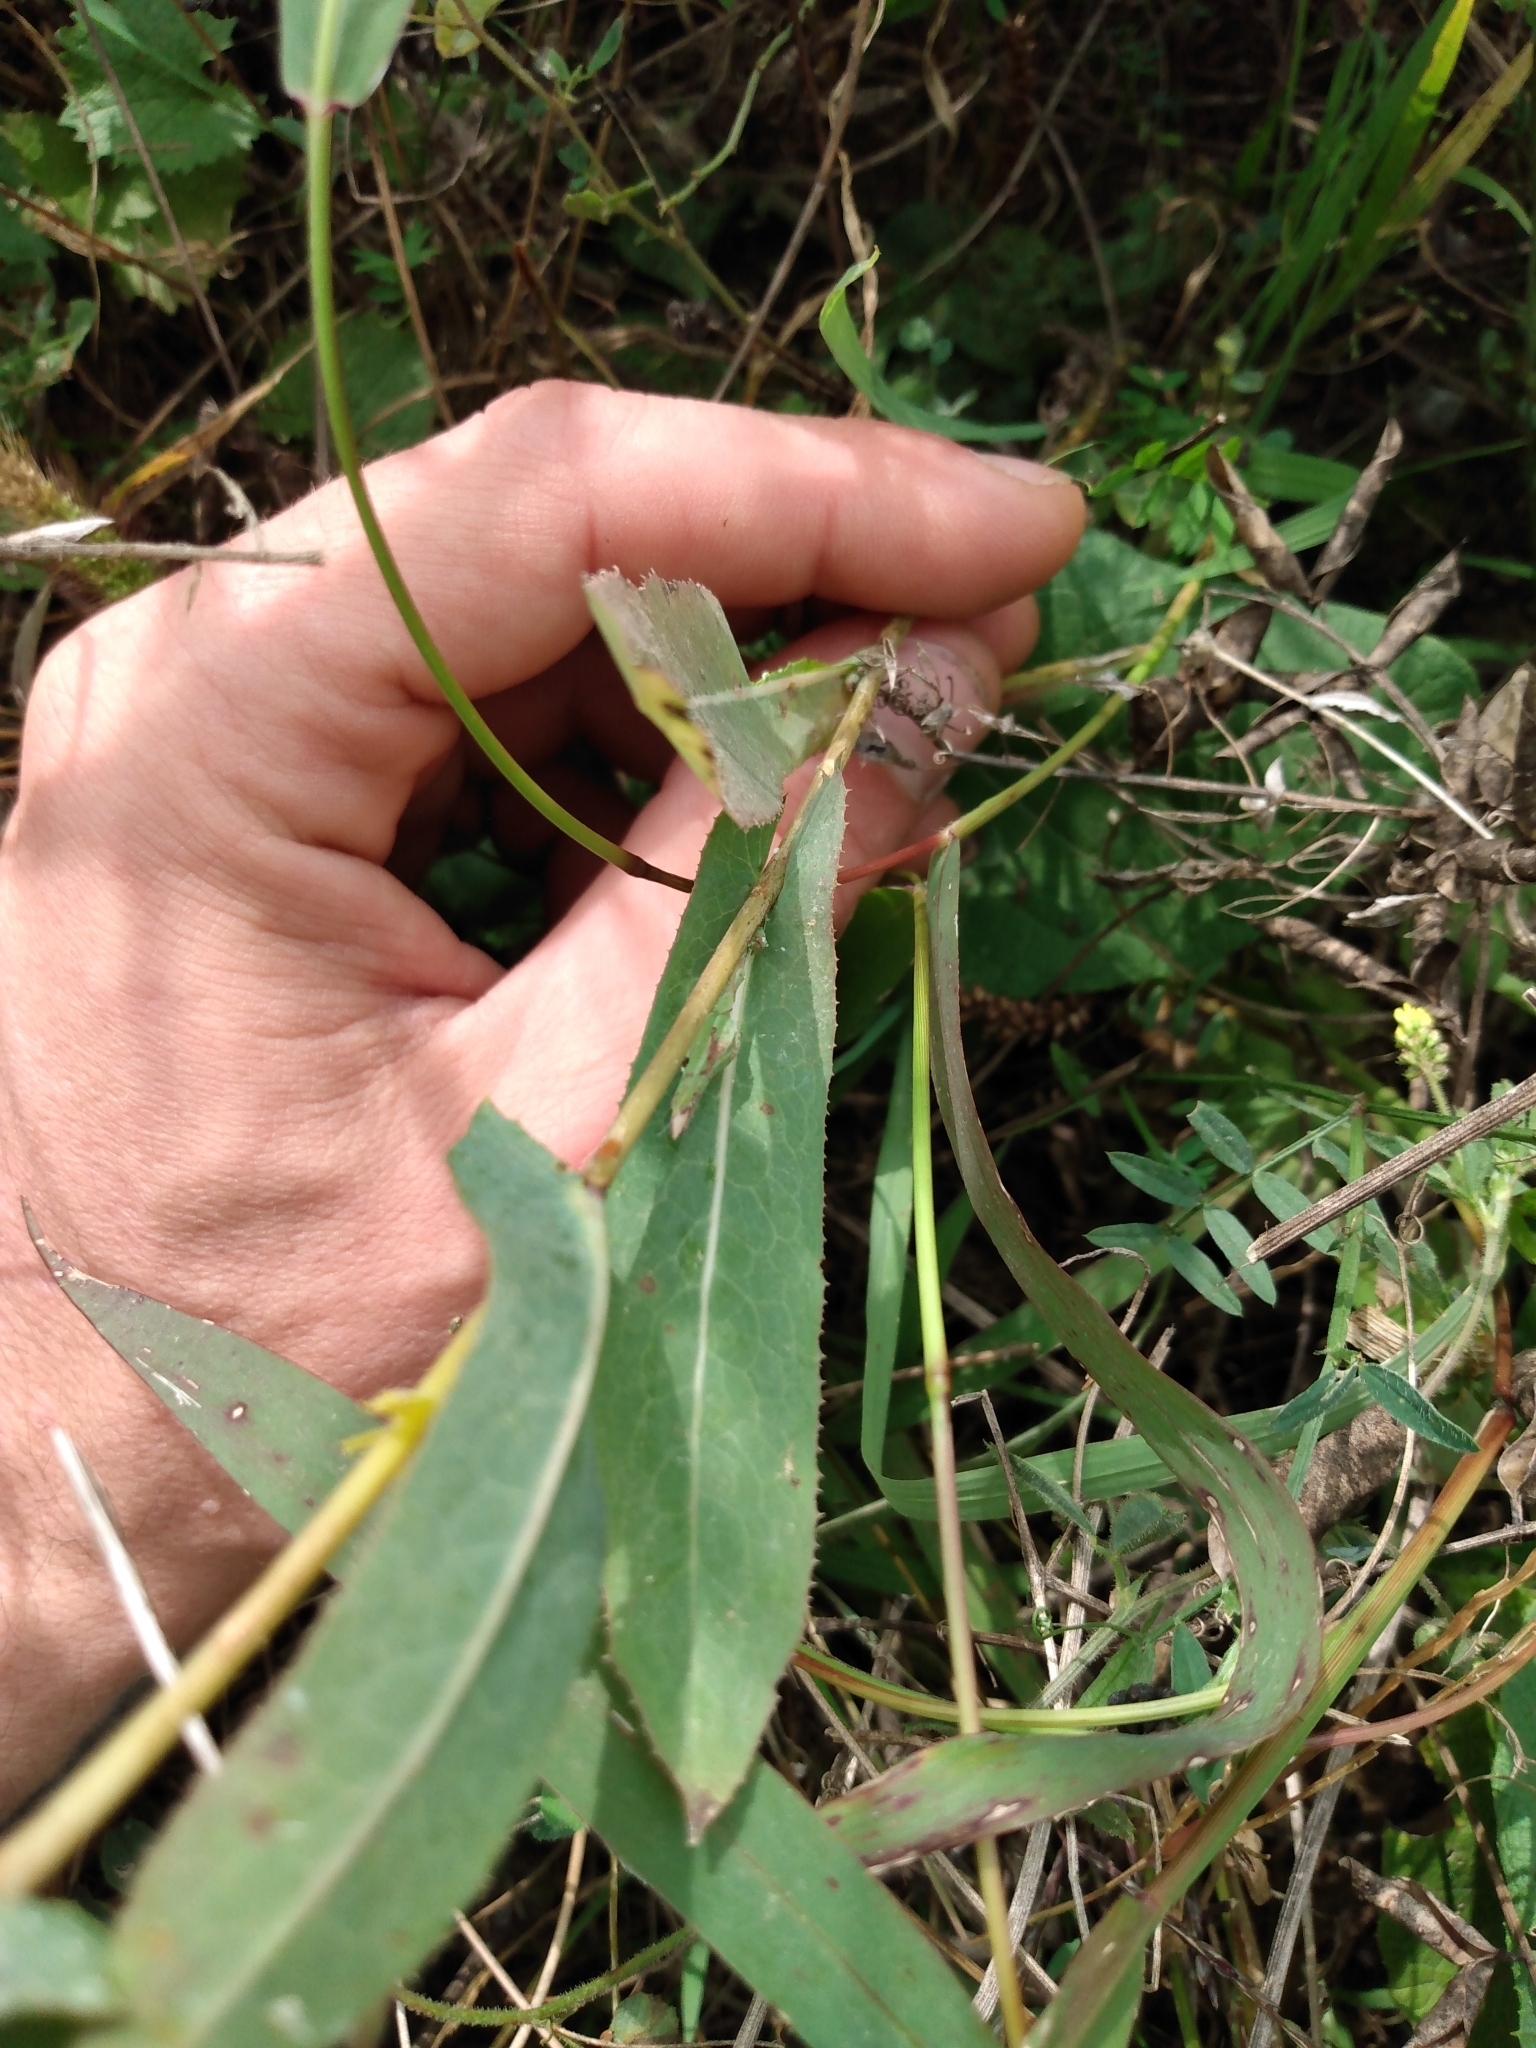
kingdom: Plantae
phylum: Tracheophyta
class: Magnoliopsida
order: Asterales
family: Asteraceae
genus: Lactuca
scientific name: Lactuca serriola
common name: Prickly lettuce
